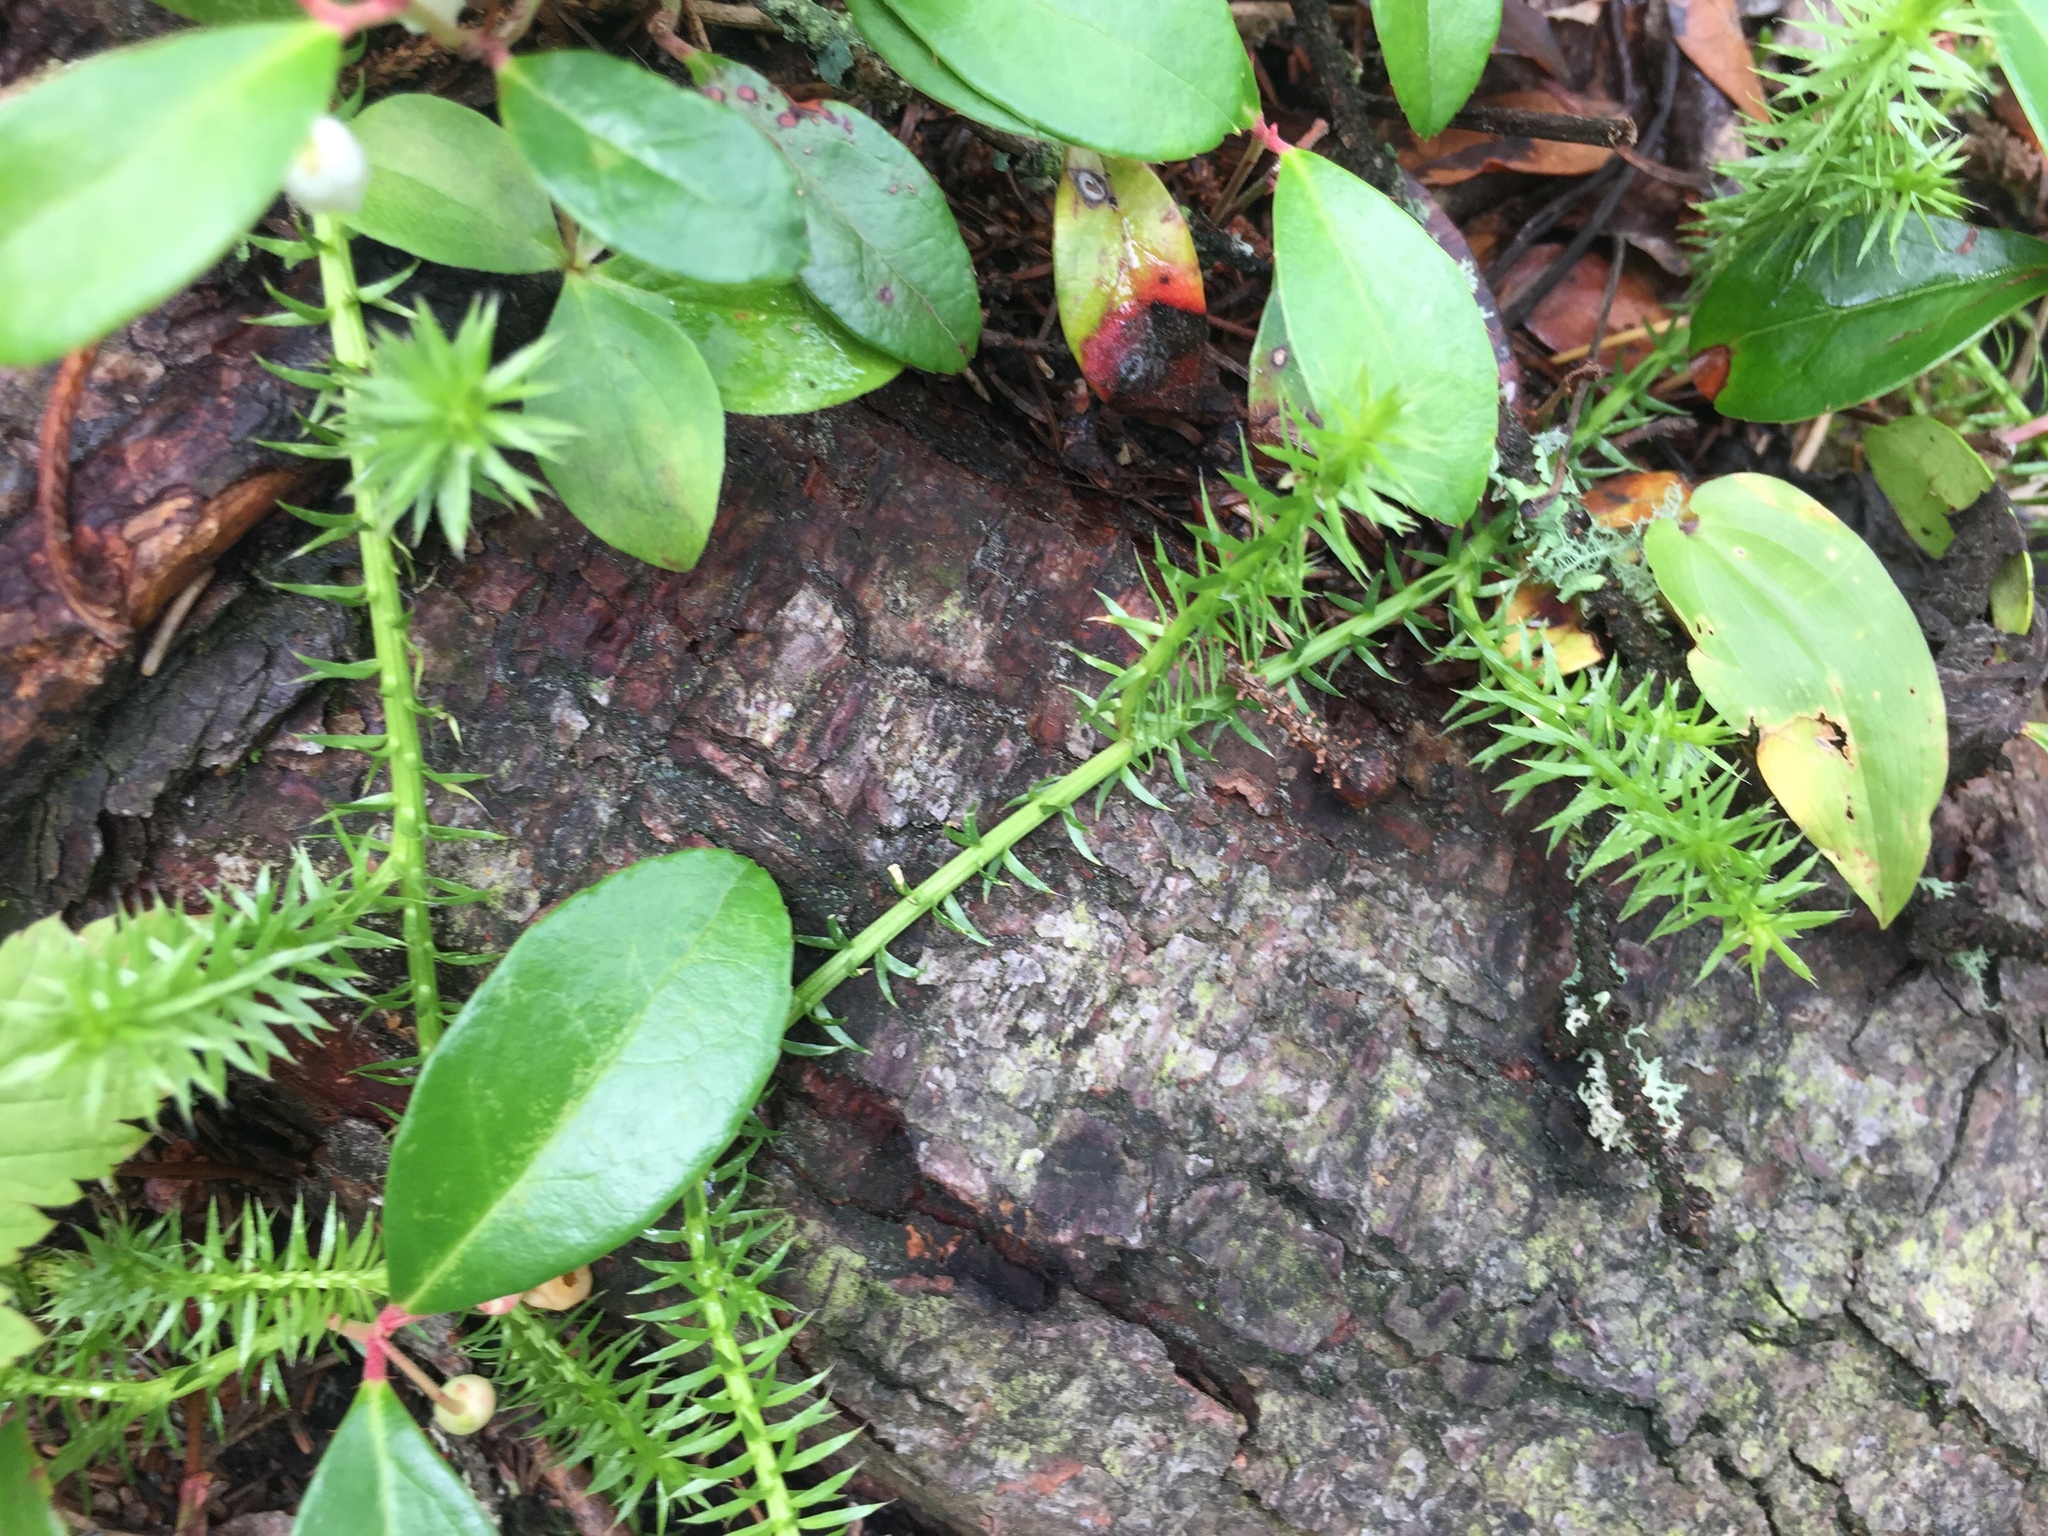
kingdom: Plantae
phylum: Tracheophyta
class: Lycopodiopsida
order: Lycopodiales
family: Lycopodiaceae
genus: Spinulum
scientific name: Spinulum annotinum
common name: Interrupted club-moss
